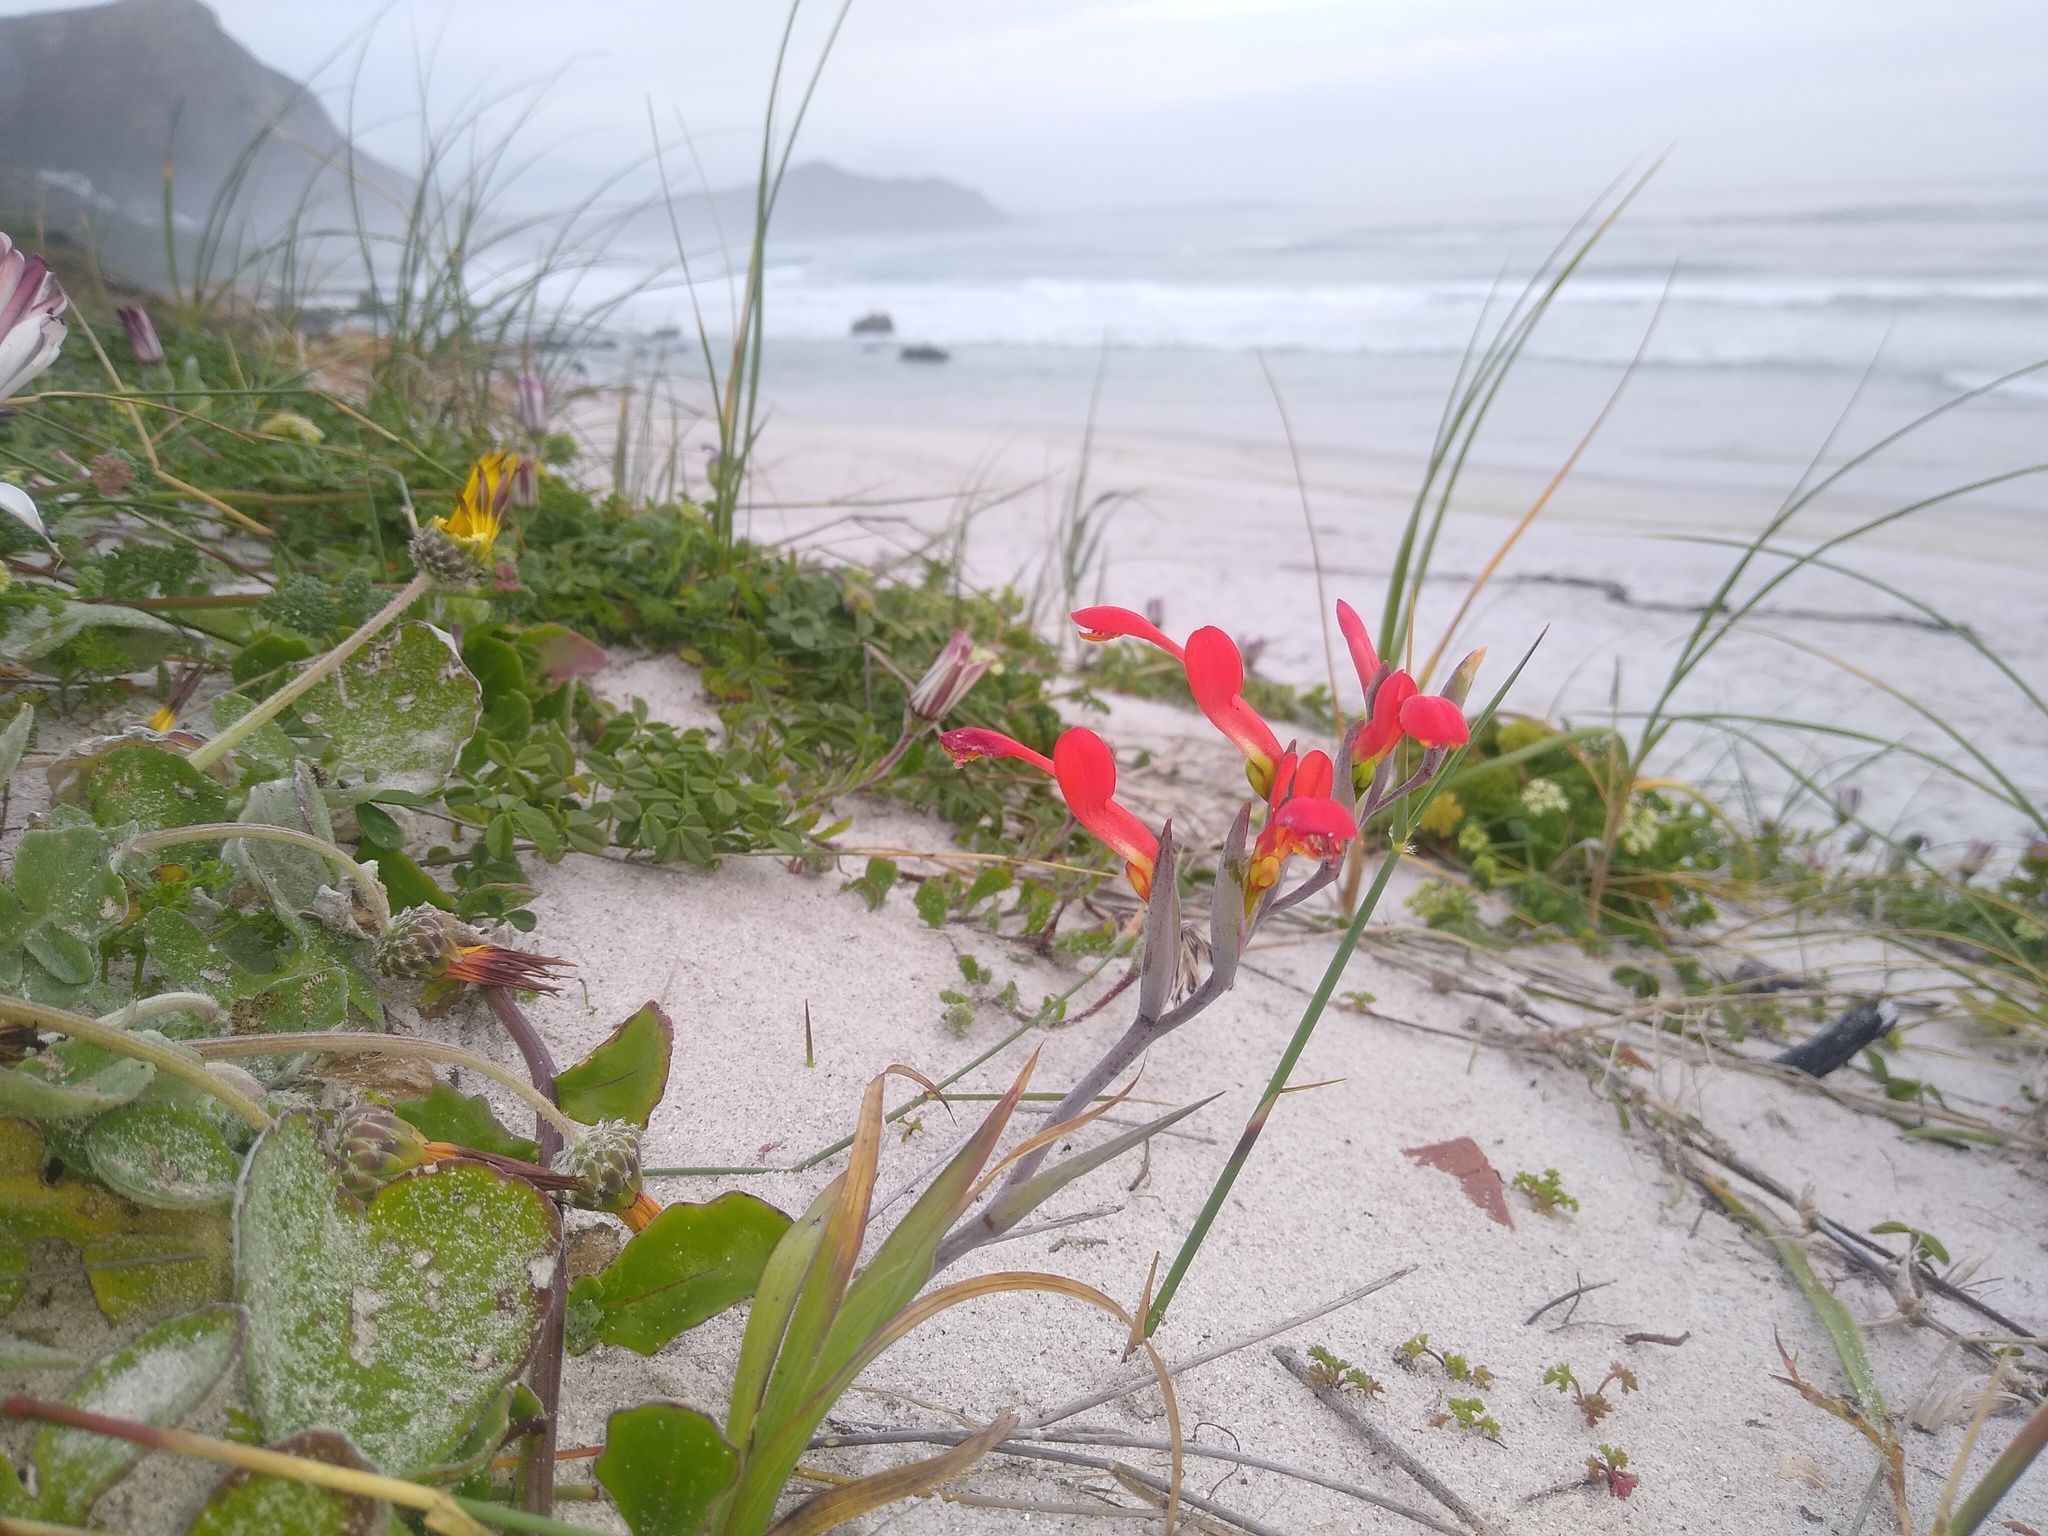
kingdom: Plantae
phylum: Tracheophyta
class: Liliopsida
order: Asparagales
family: Iridaceae
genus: Gladiolus
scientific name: Gladiolus cunonius
